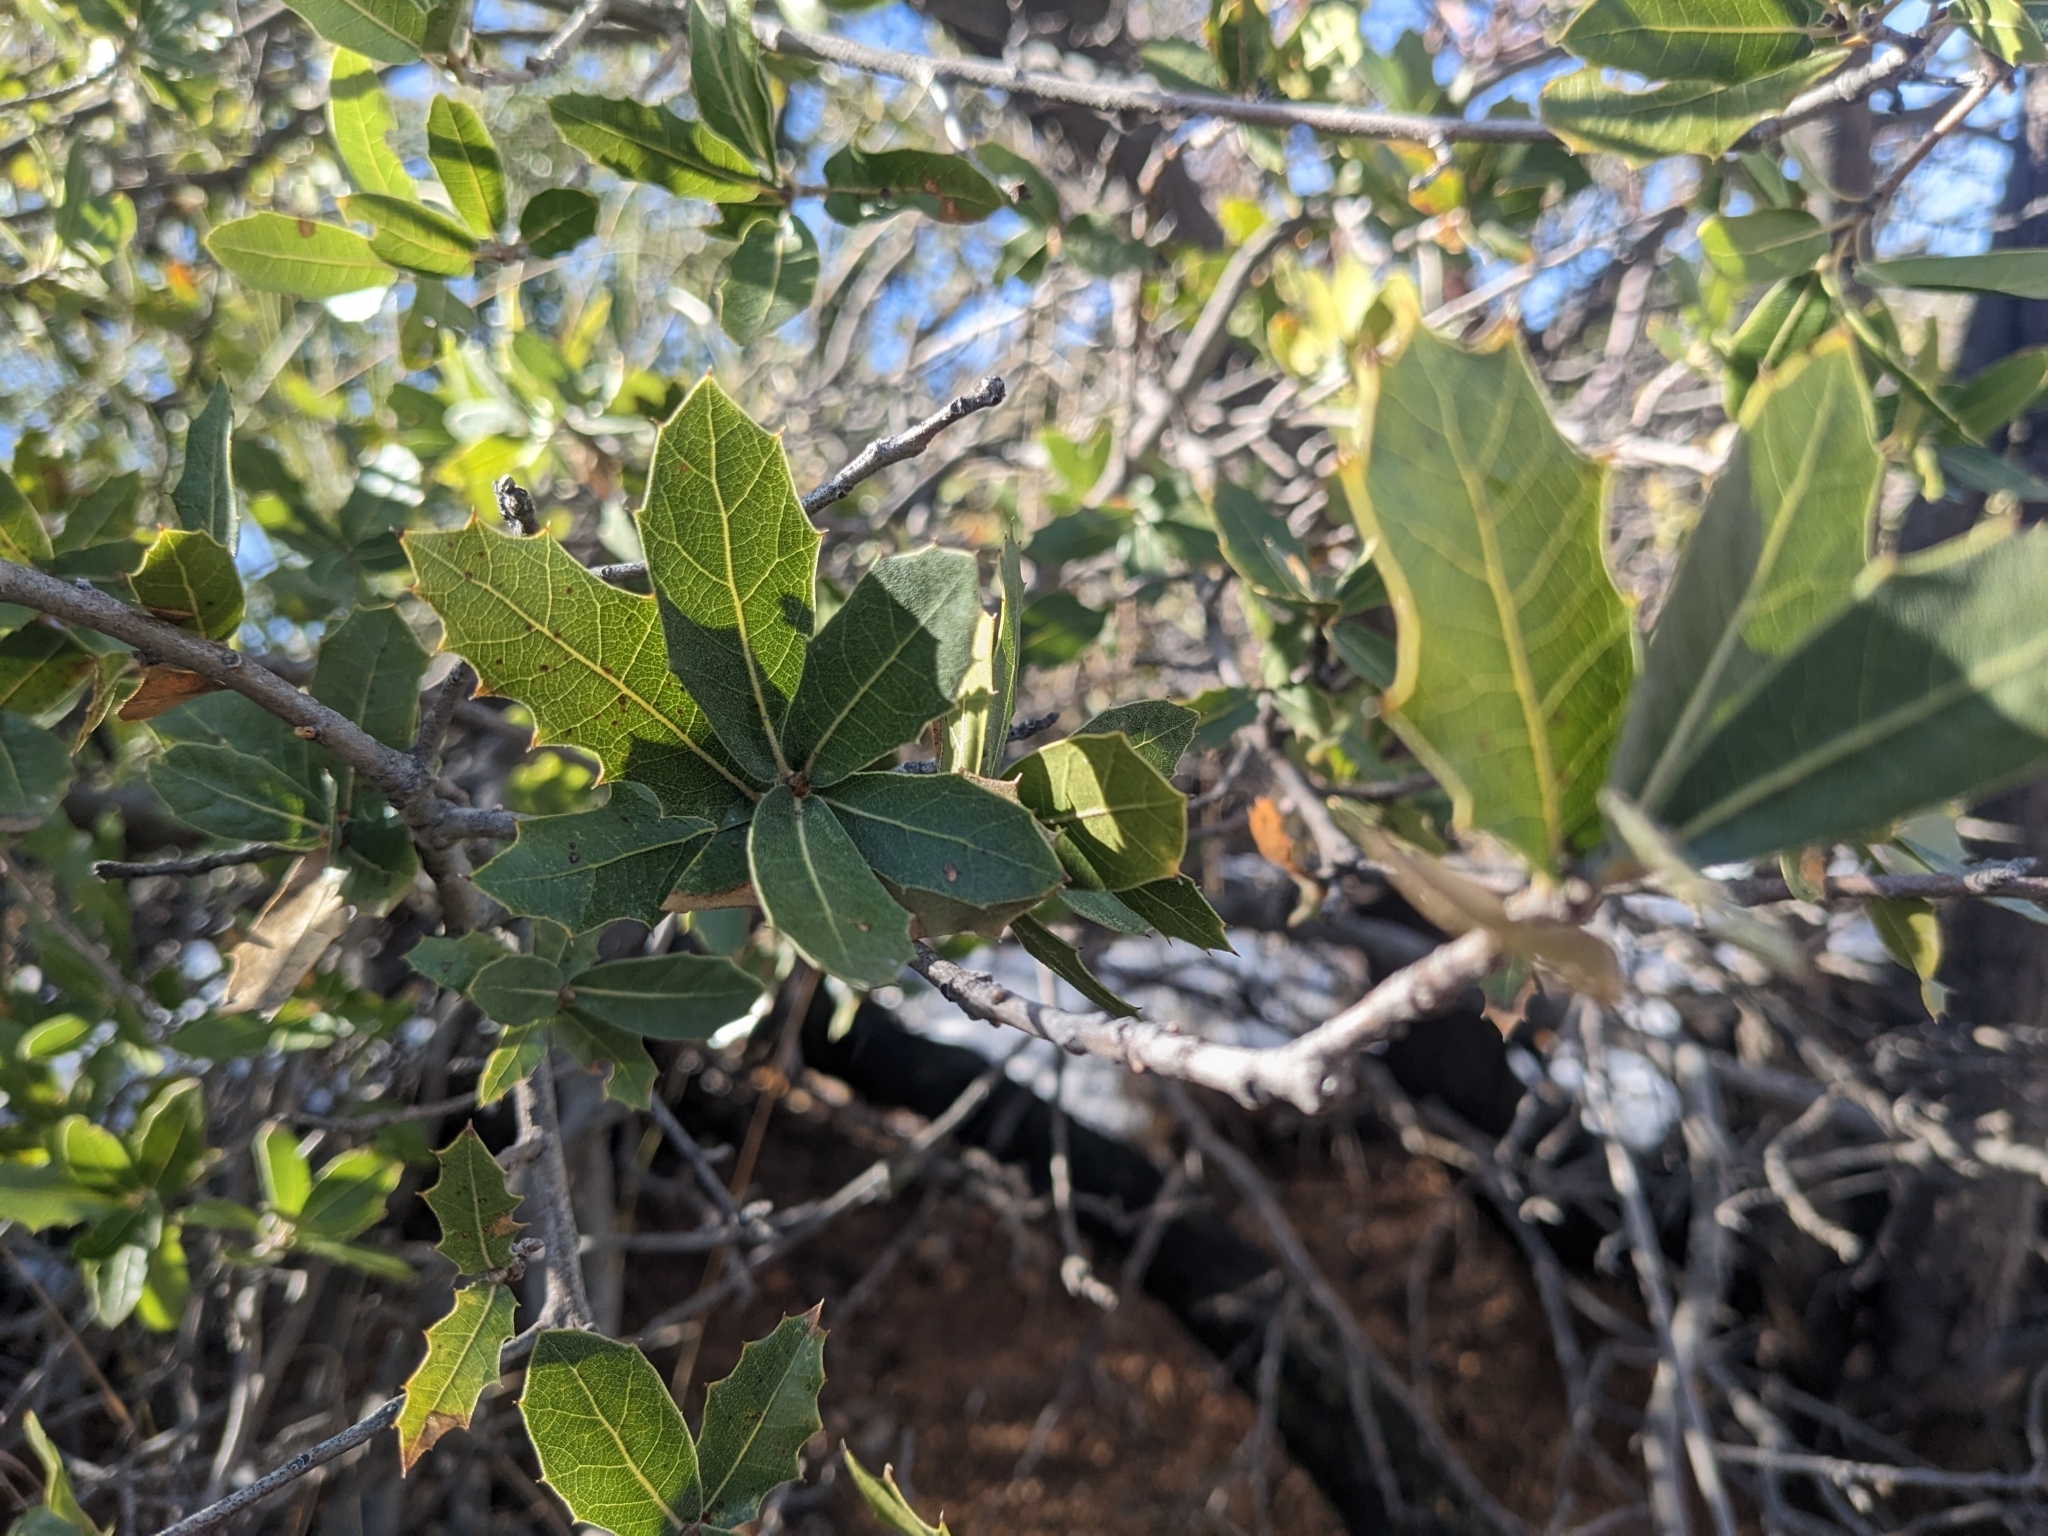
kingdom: Plantae
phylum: Tracheophyta
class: Magnoliopsida
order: Fagales
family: Fagaceae
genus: Quercus
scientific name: Quercus emoryi
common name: Emory oak
